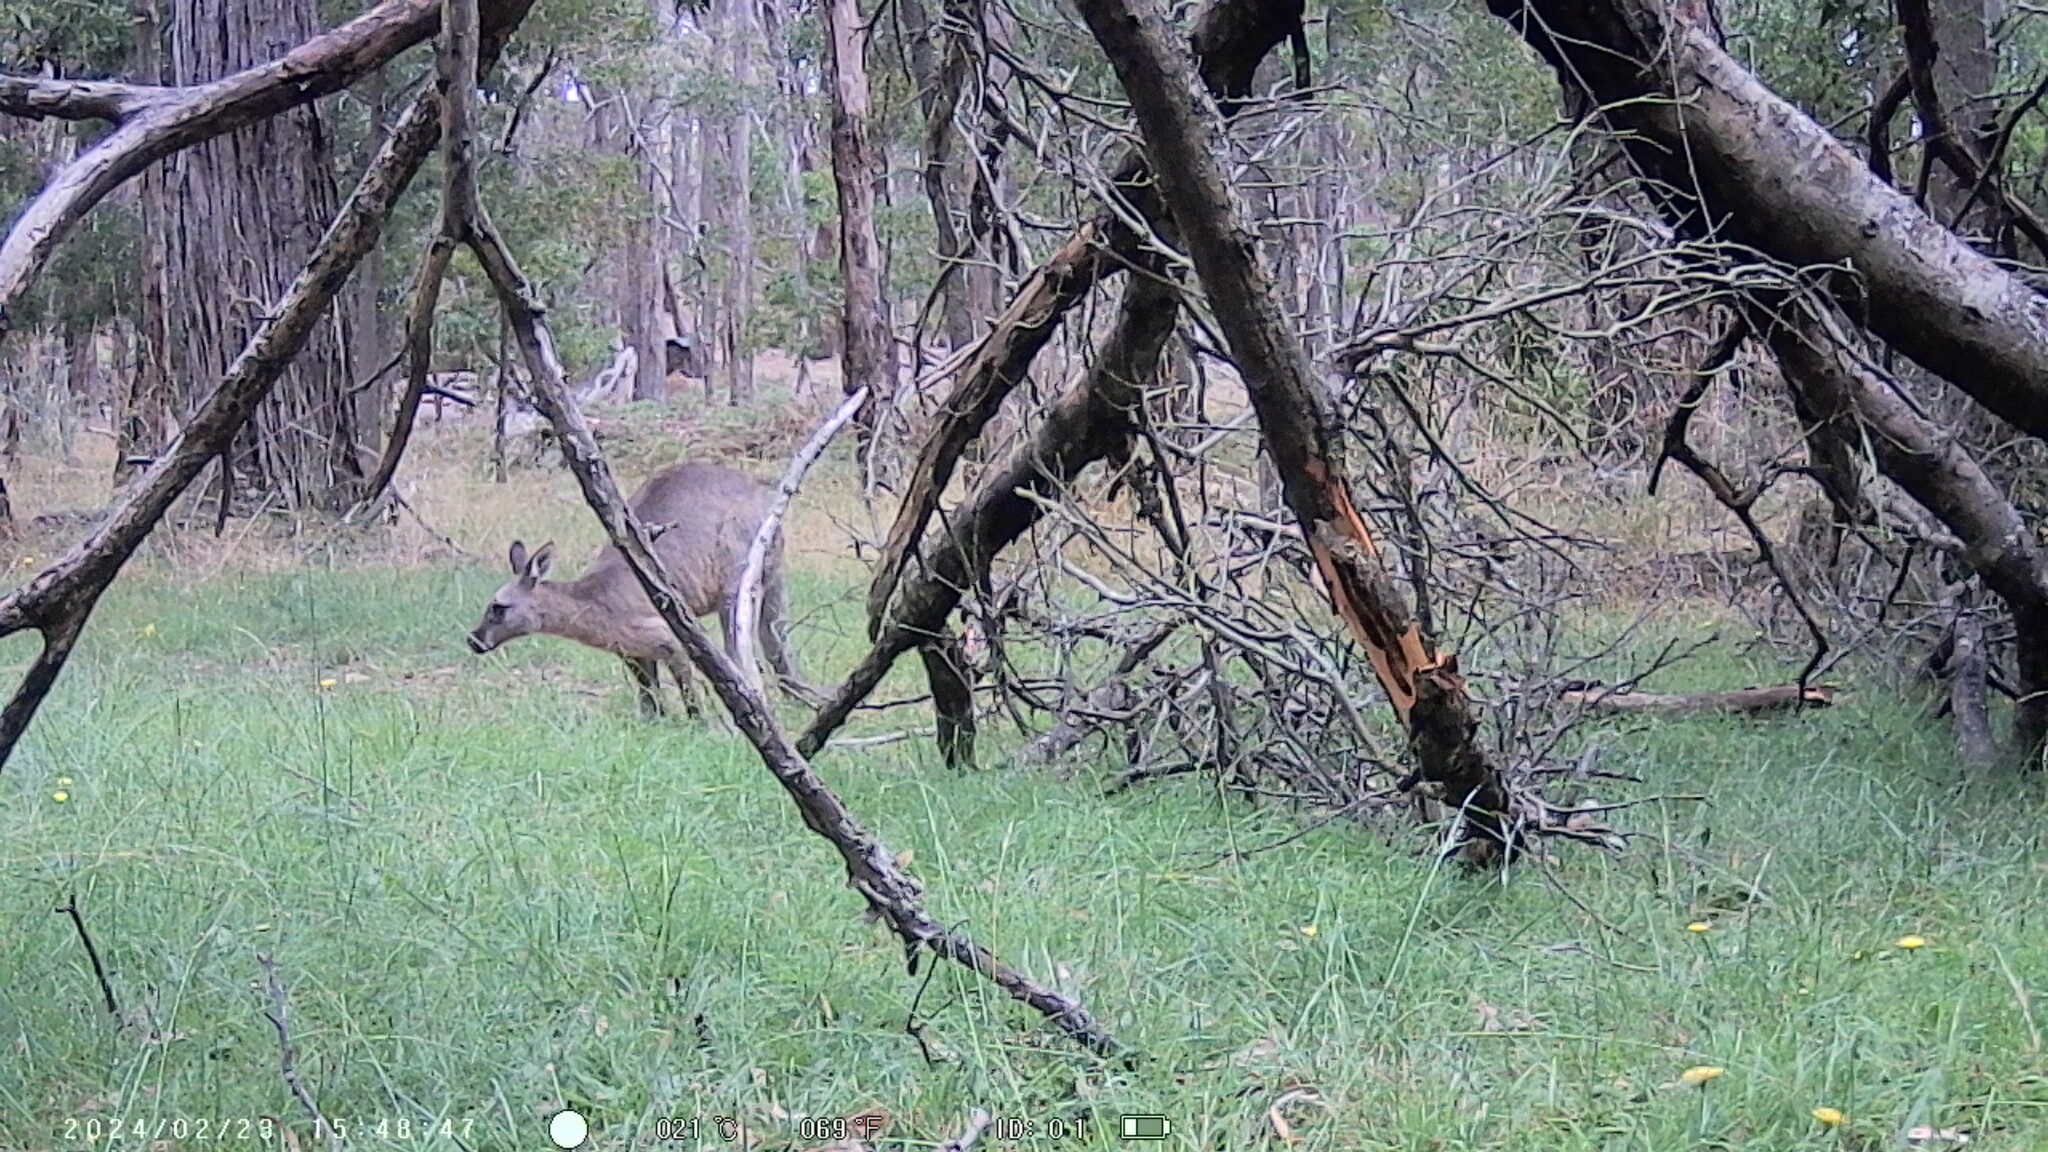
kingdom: Animalia
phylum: Chordata
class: Mammalia
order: Diprotodontia
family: Macropodidae
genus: Macropus
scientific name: Macropus giganteus
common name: Eastern grey kangaroo
